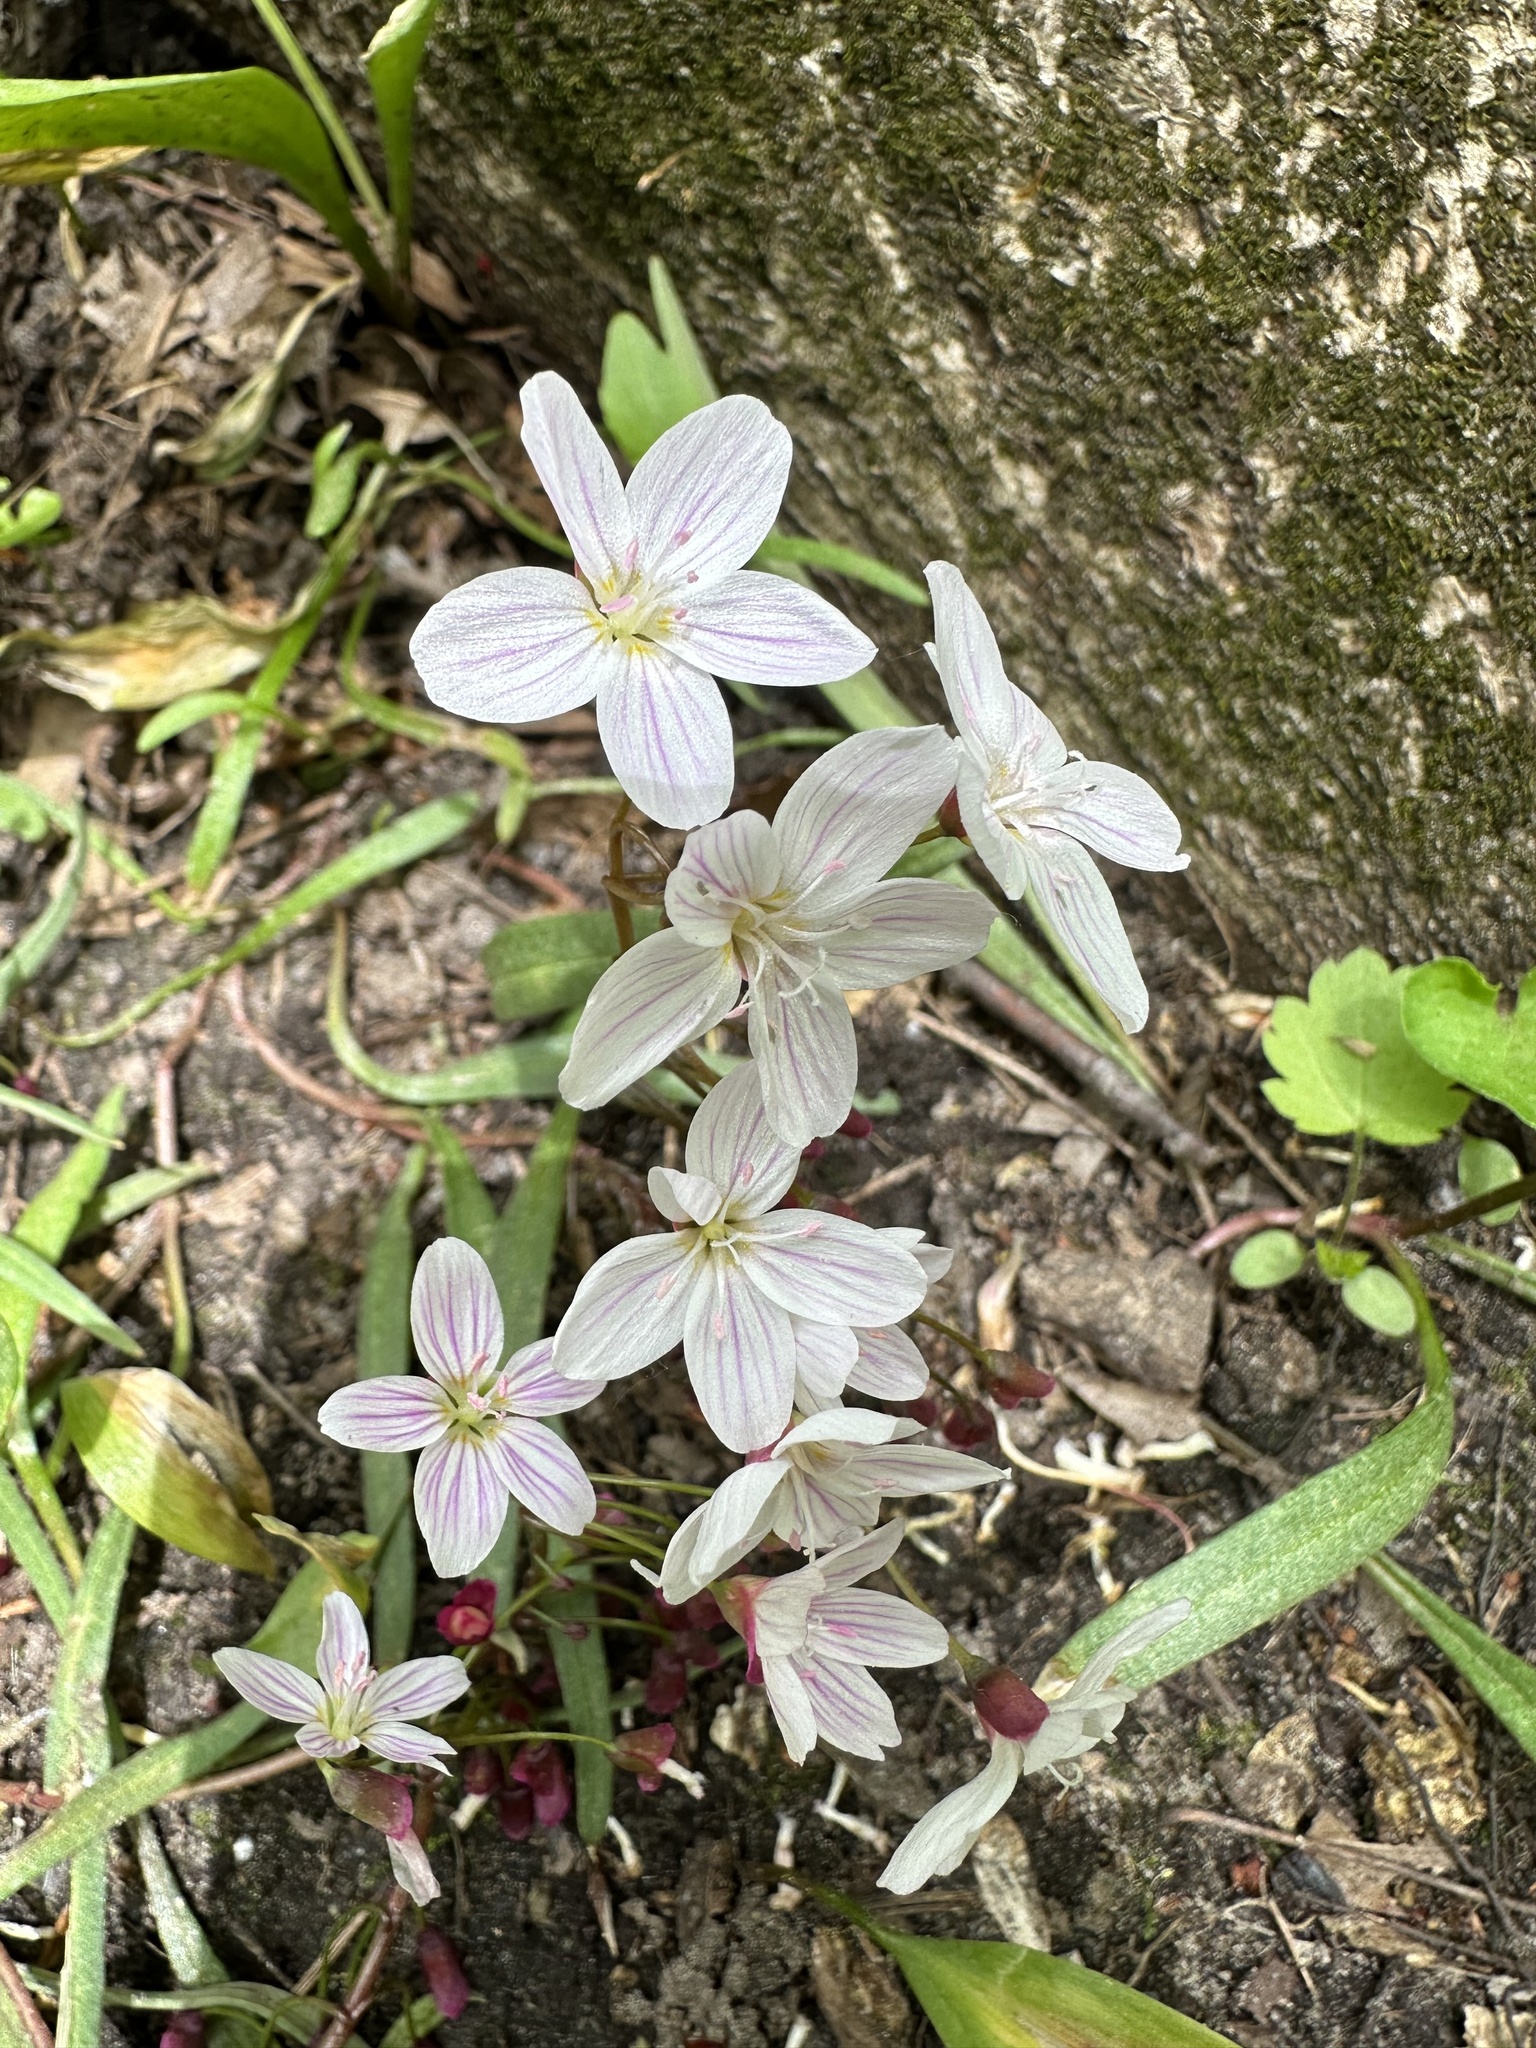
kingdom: Plantae
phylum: Tracheophyta
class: Magnoliopsida
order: Caryophyllales
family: Montiaceae
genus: Claytonia
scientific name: Claytonia virginica
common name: Virginia springbeauty
